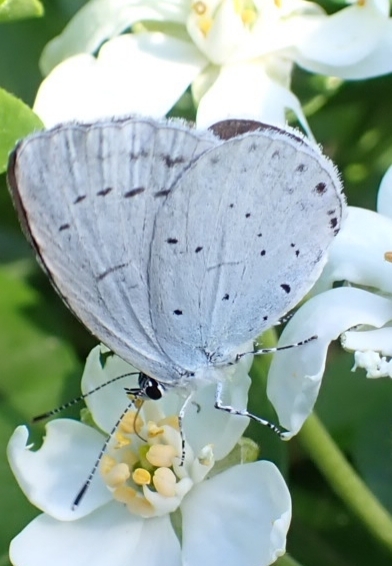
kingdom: Animalia
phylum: Arthropoda
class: Insecta
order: Lepidoptera
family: Lycaenidae
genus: Celastrina
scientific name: Celastrina argiolus
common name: Holly blue
